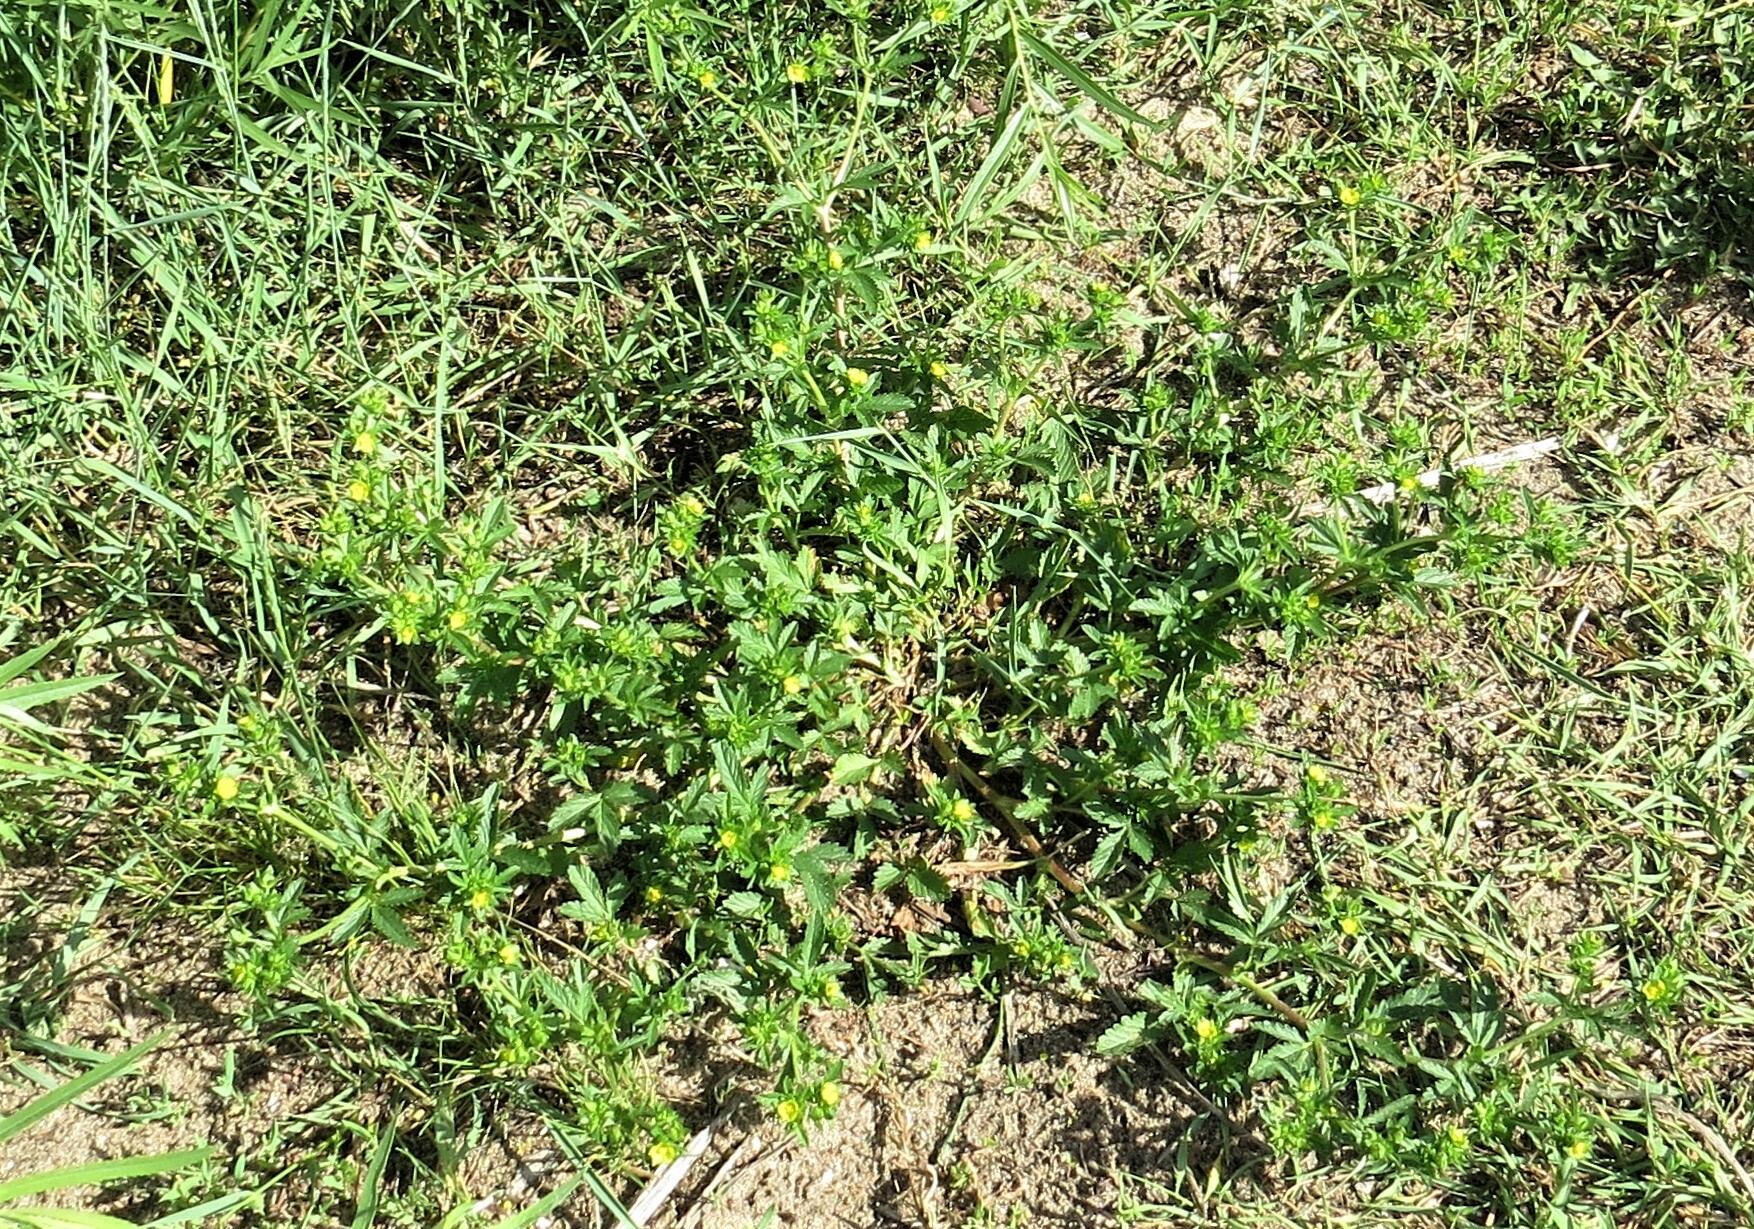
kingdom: Plantae
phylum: Tracheophyta
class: Magnoliopsida
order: Rosales
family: Rosaceae
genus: Potentilla
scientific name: Potentilla norvegica
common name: Ternate-leaved cinquefoil
